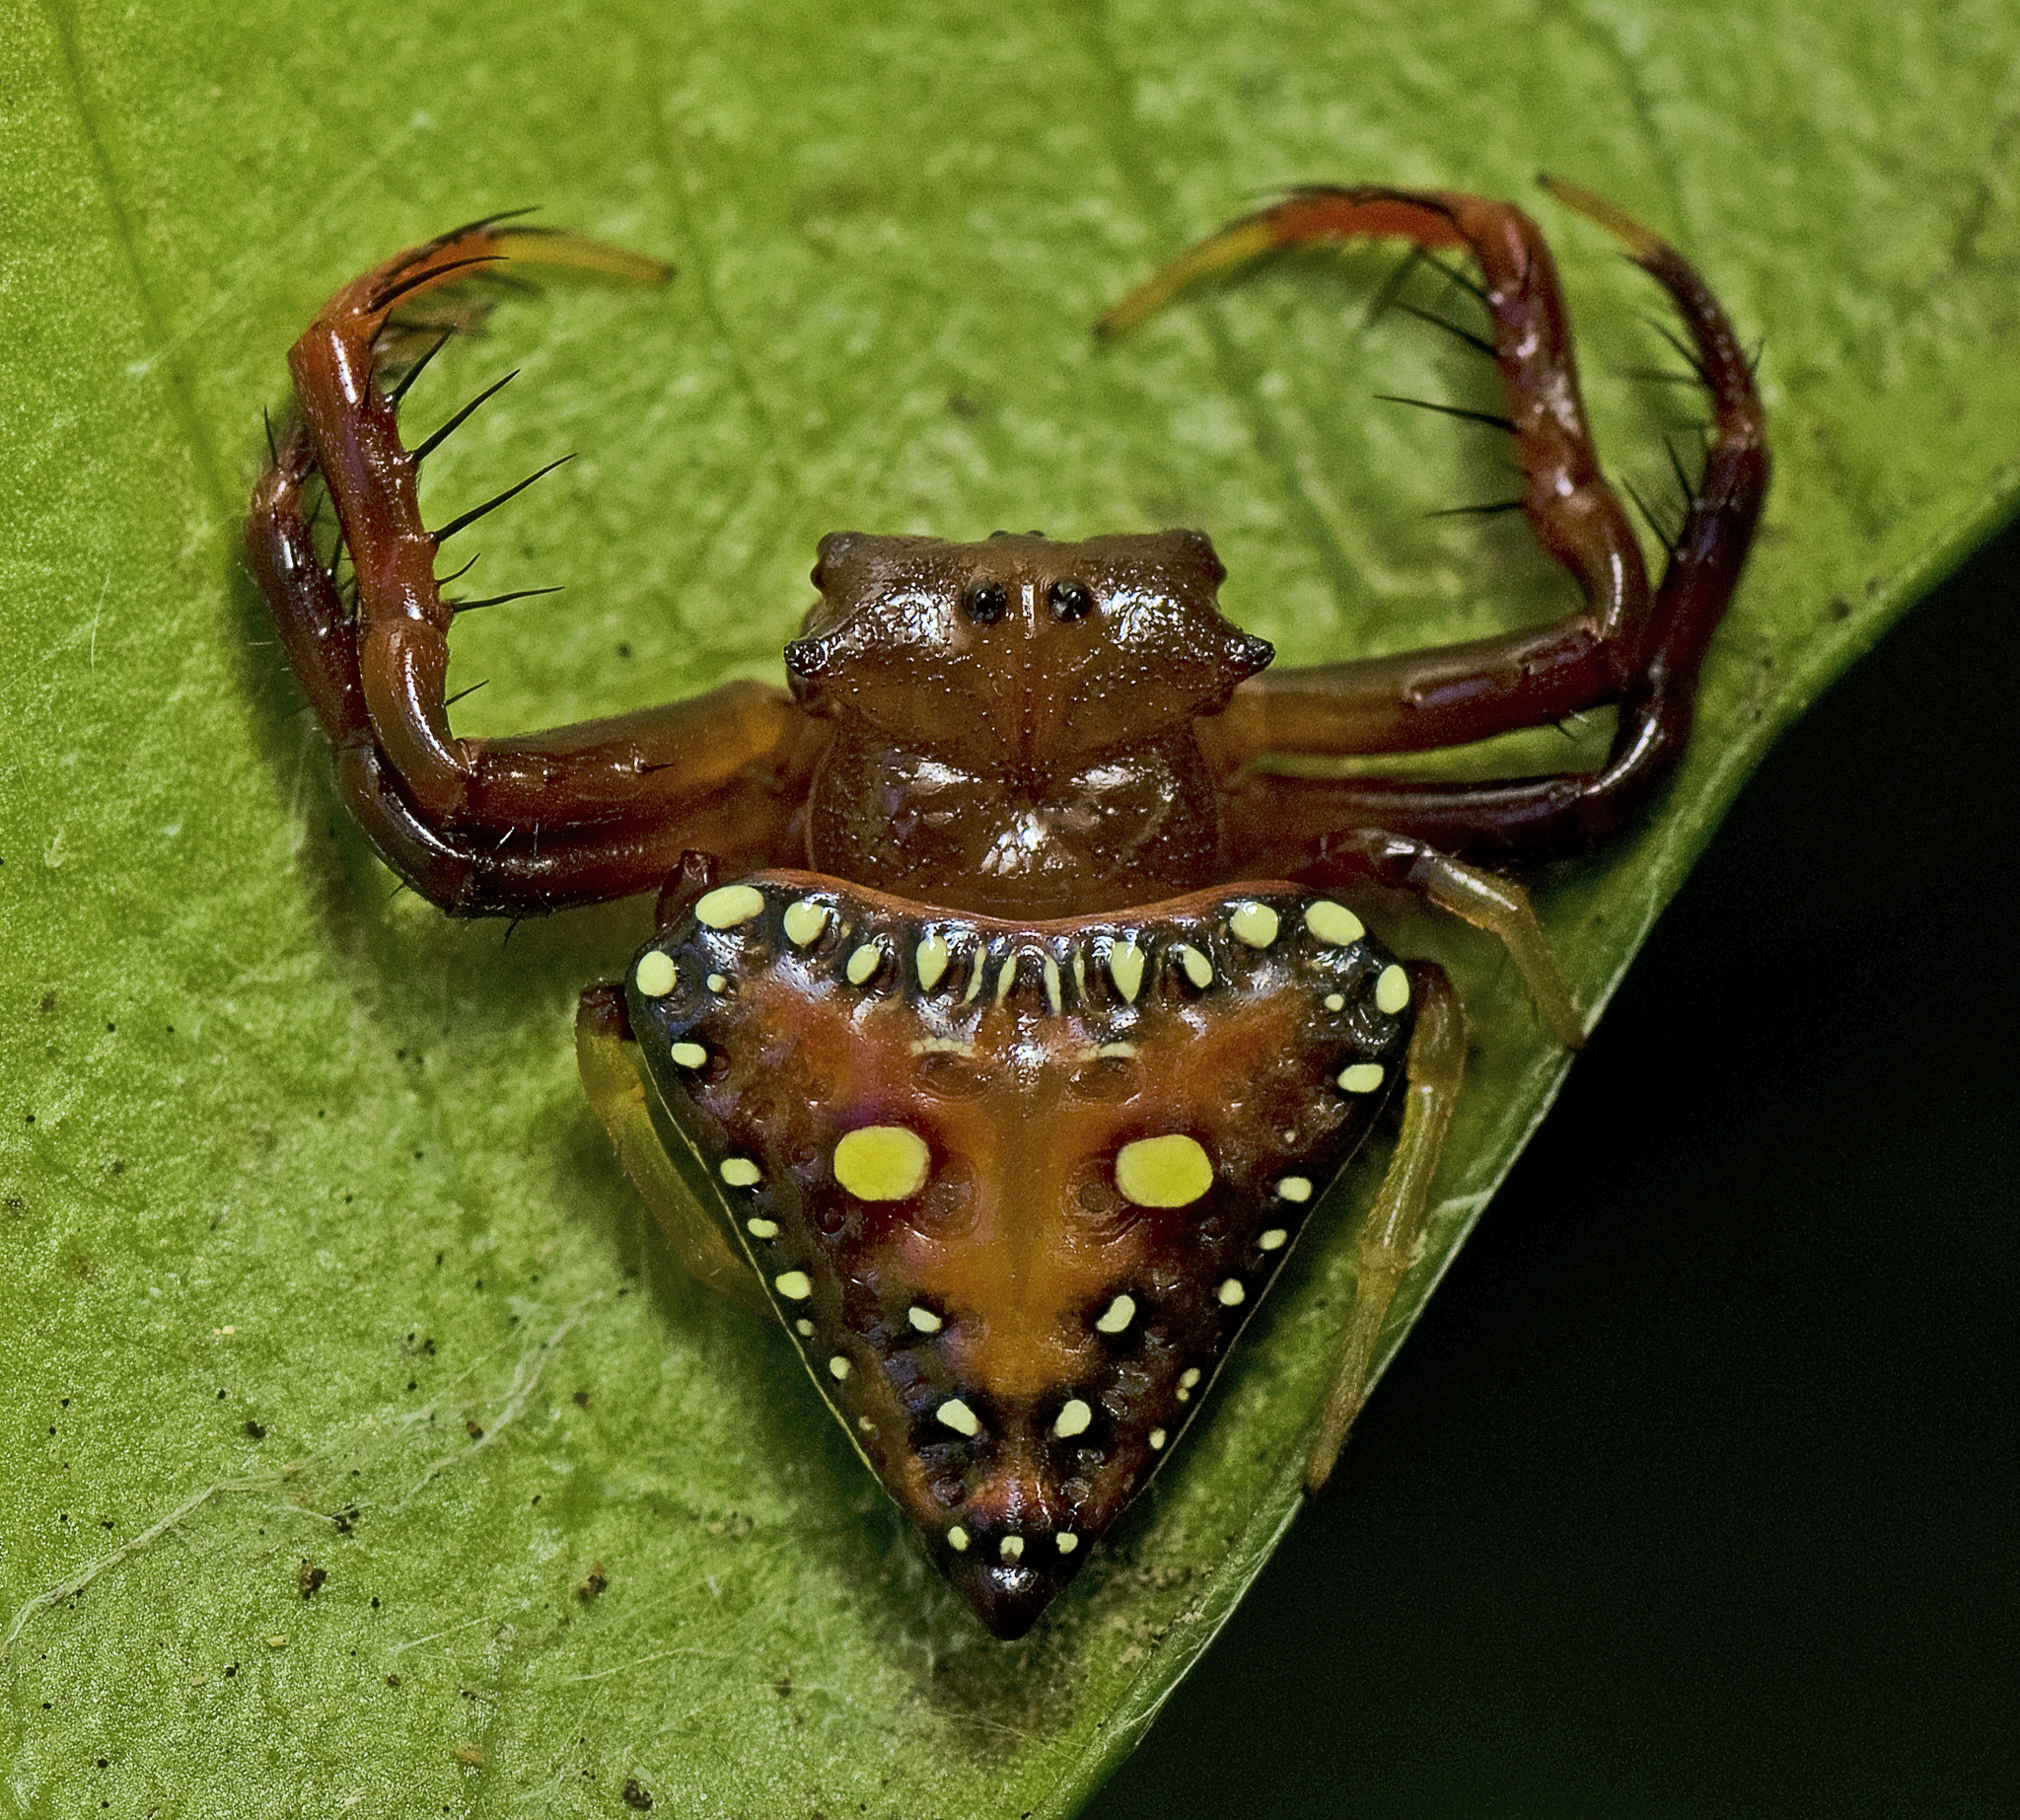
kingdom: Animalia
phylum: Arthropoda
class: Arachnida
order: Araneae
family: Arkyidae
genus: Arkys
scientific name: Arkys lancearius
